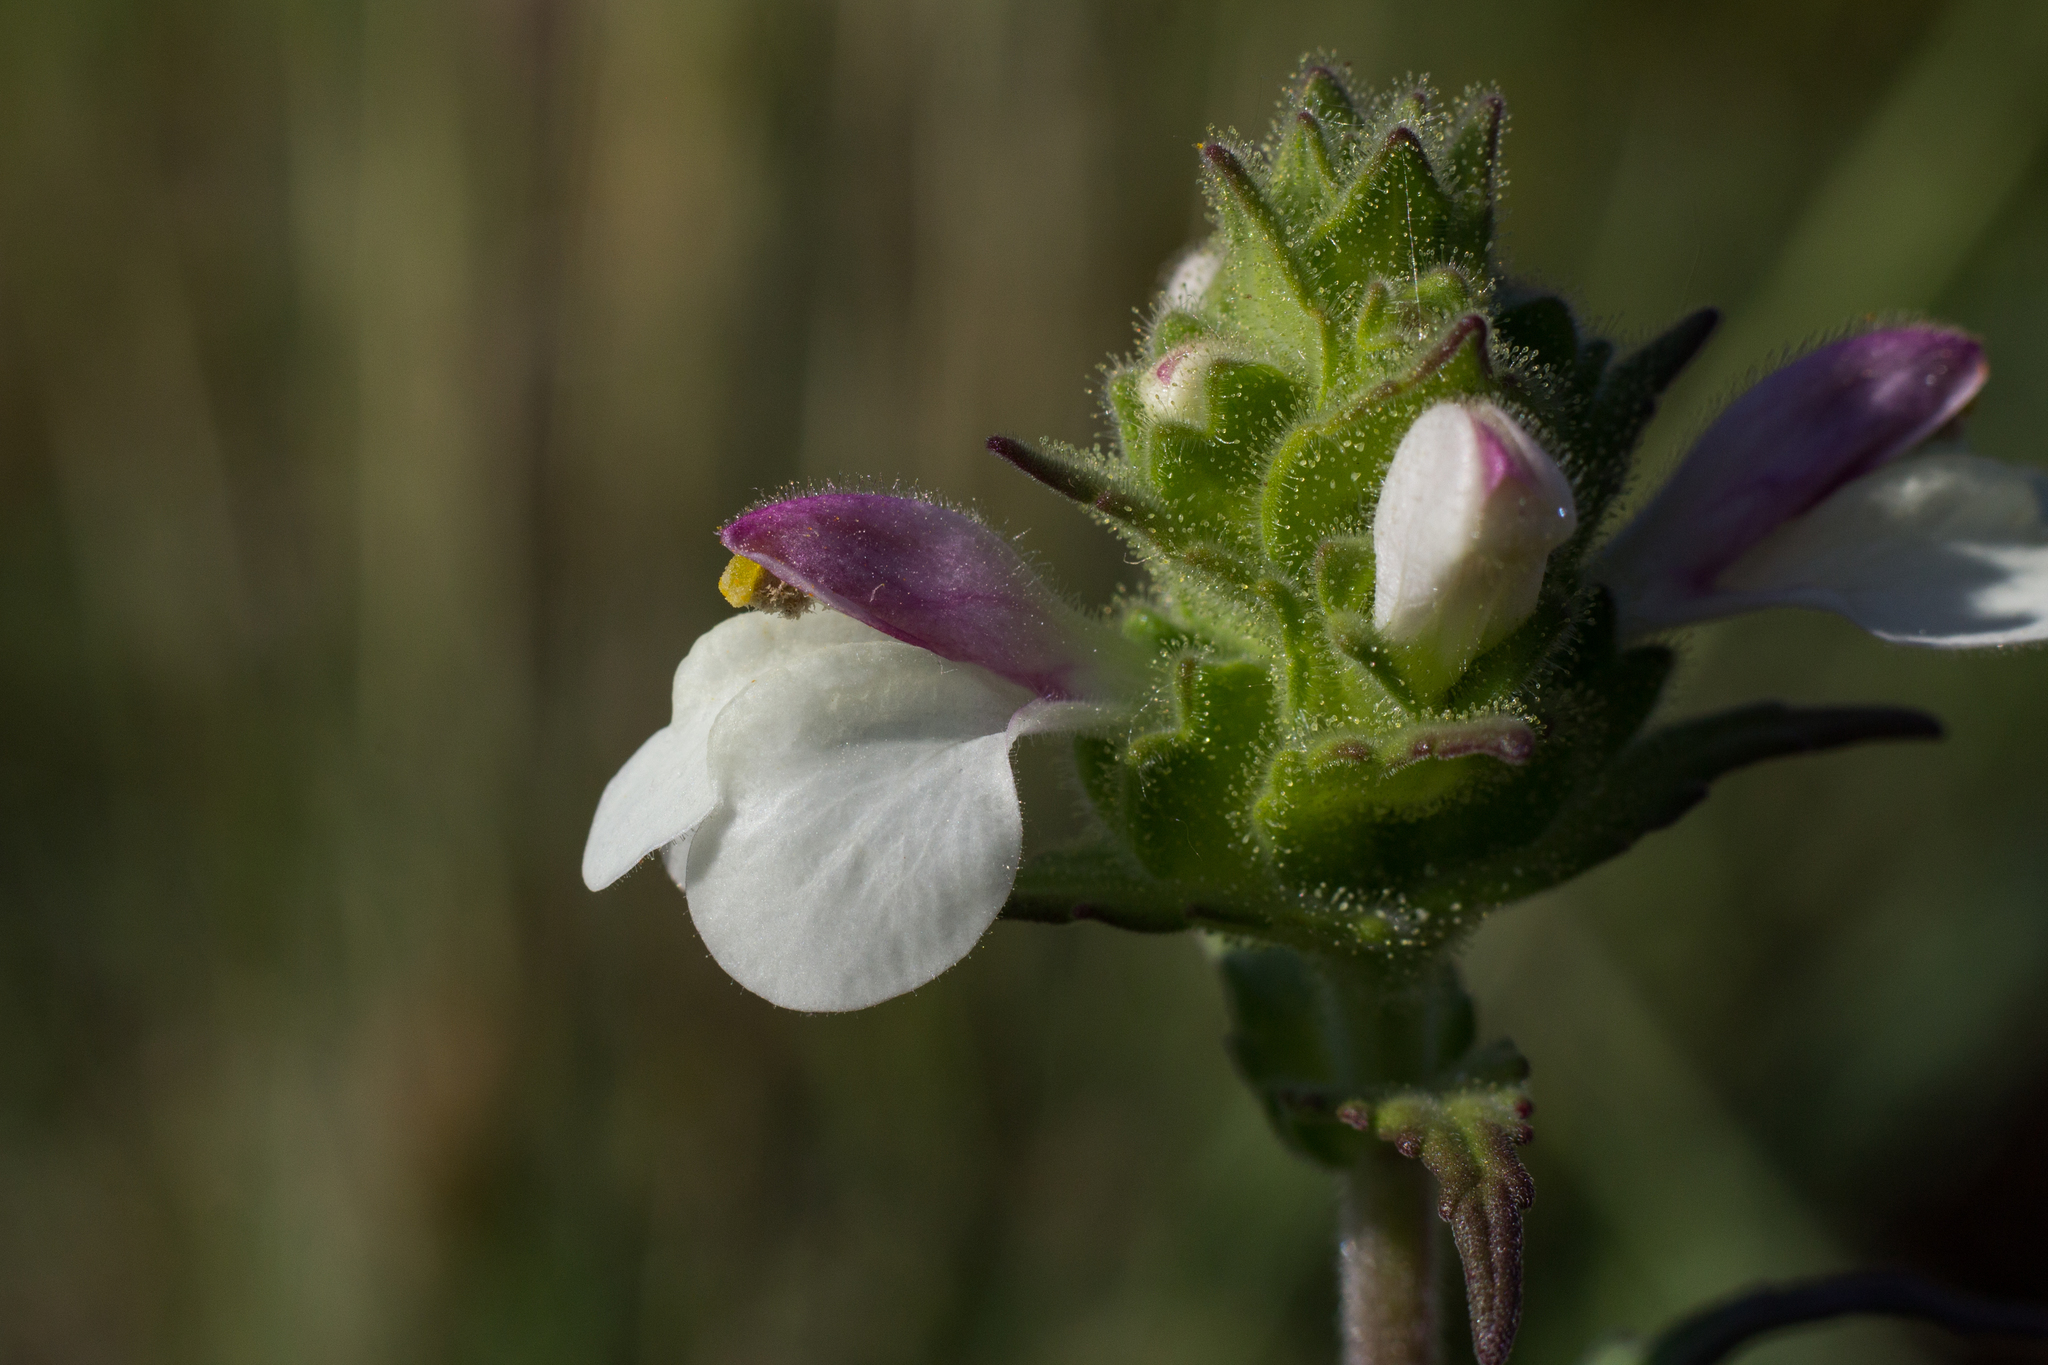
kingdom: Plantae
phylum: Tracheophyta
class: Magnoliopsida
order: Lamiales
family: Orobanchaceae
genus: Bellardia
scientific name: Bellardia trixago
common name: Mediterranean lineseed
